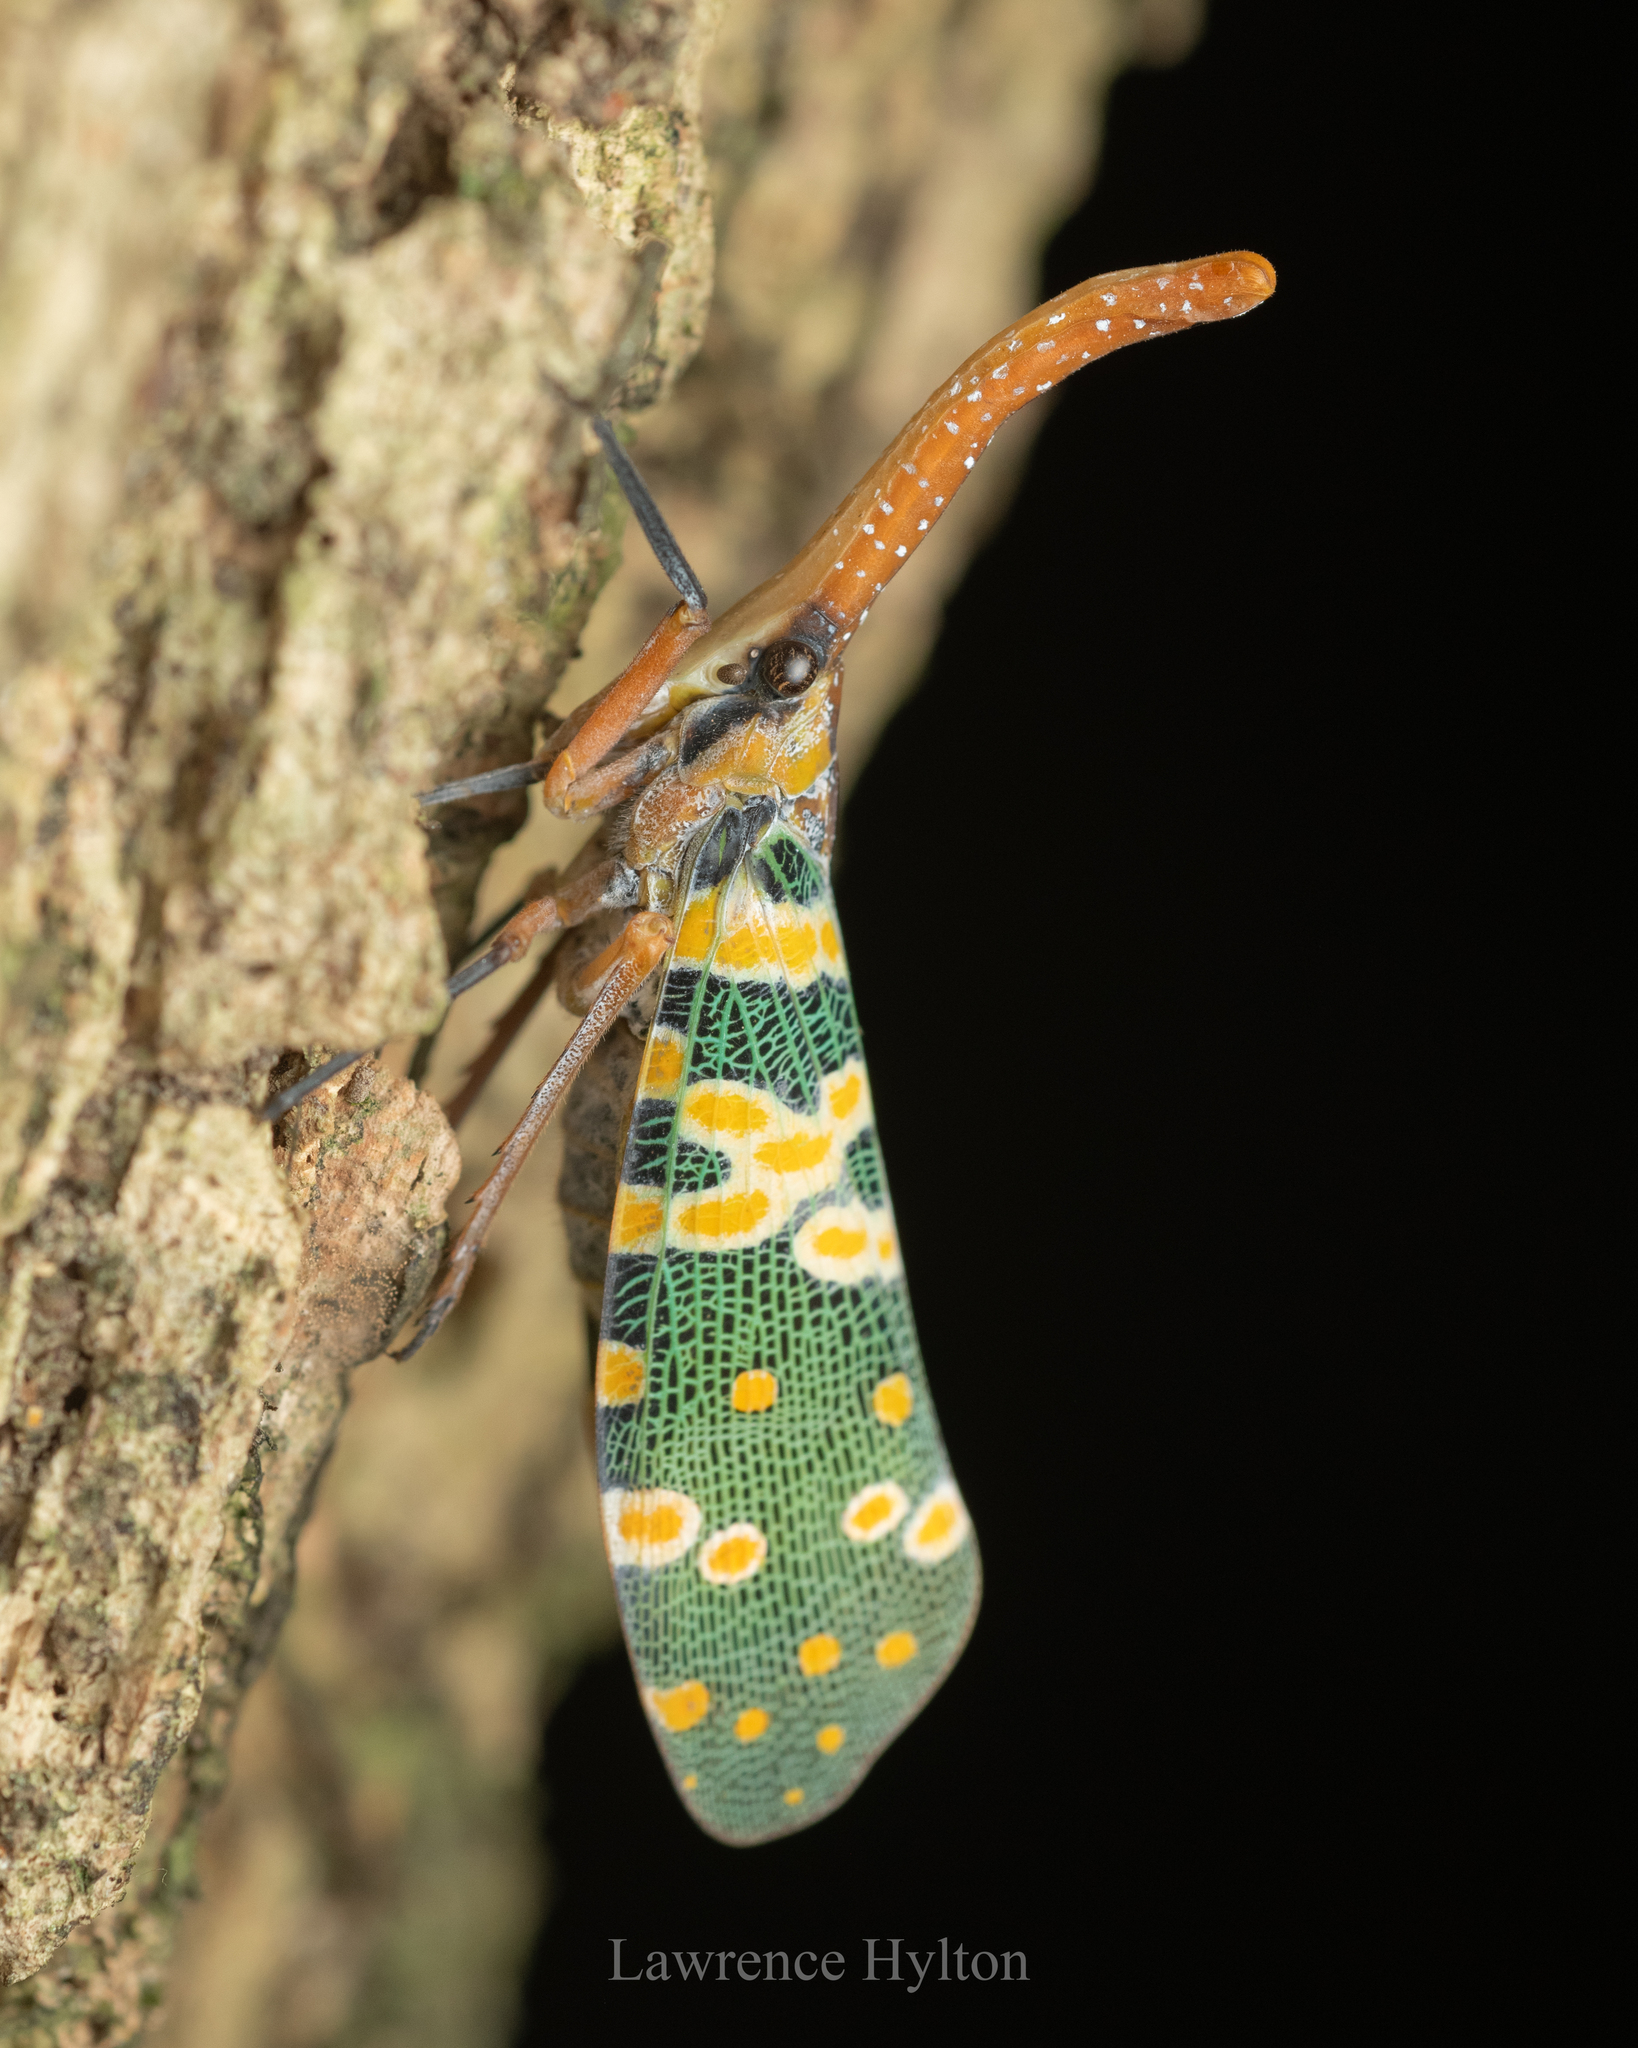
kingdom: Animalia
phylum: Arthropoda
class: Insecta
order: Hemiptera
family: Fulgoridae
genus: Pyrops
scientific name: Pyrops candelaria
